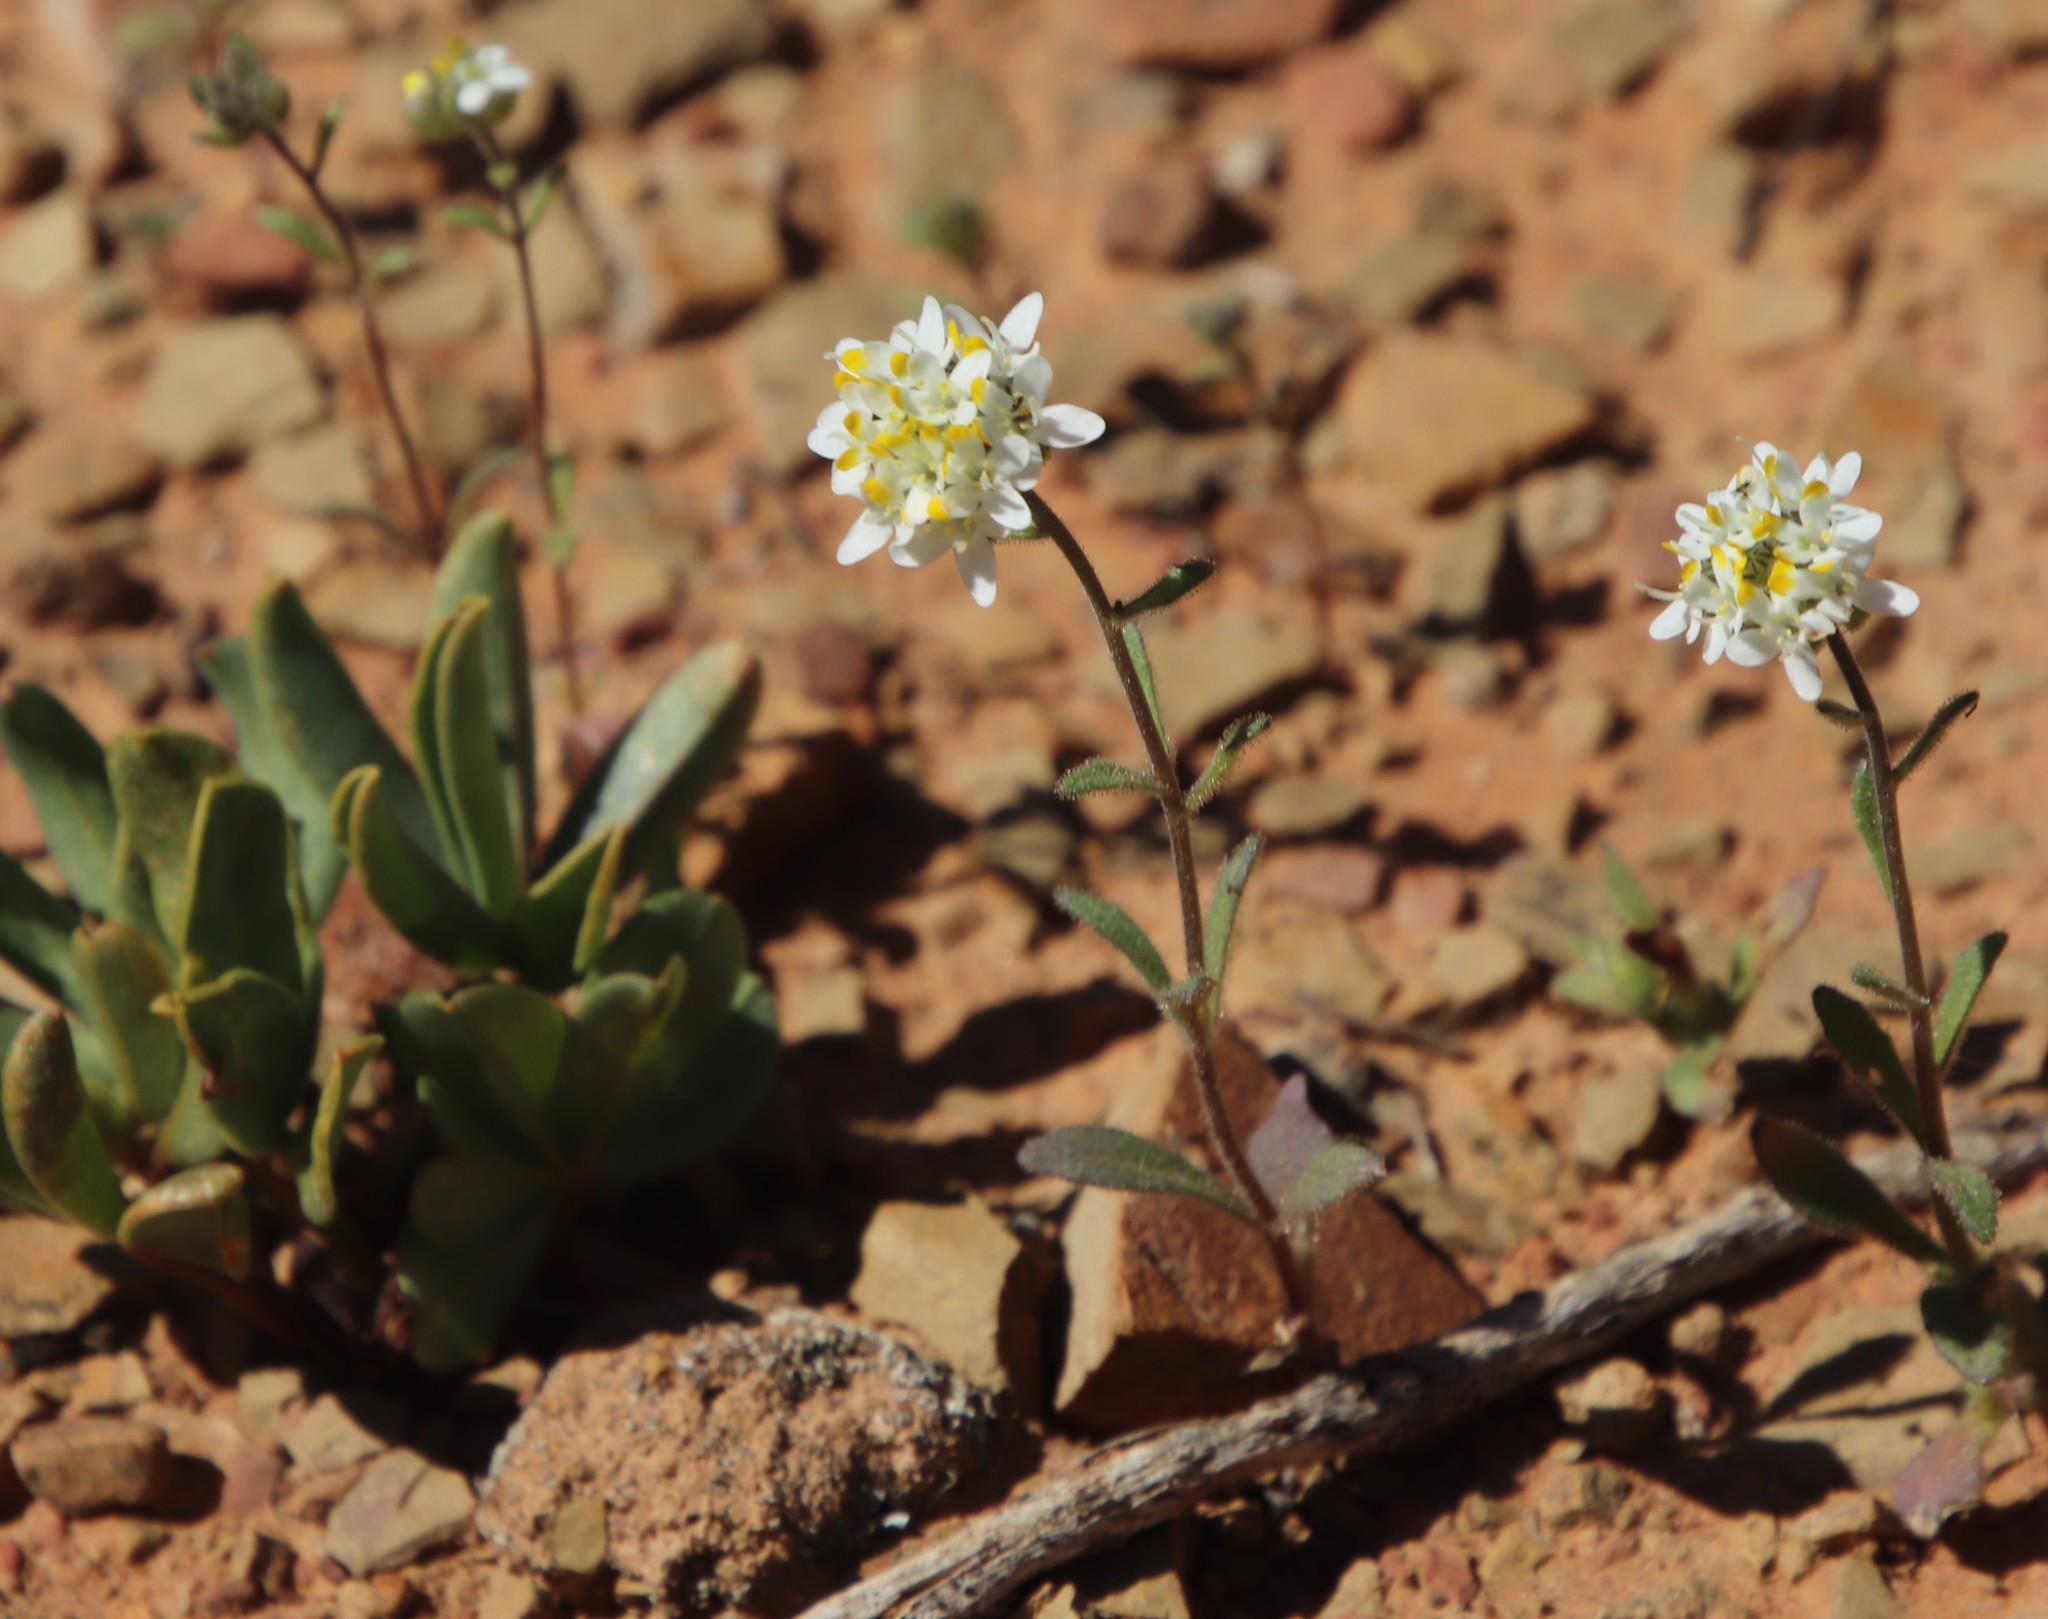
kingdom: Plantae
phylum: Tracheophyta
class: Magnoliopsida
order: Lamiales
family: Scrophulariaceae
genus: Polycarena
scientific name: Polycarena aurea
